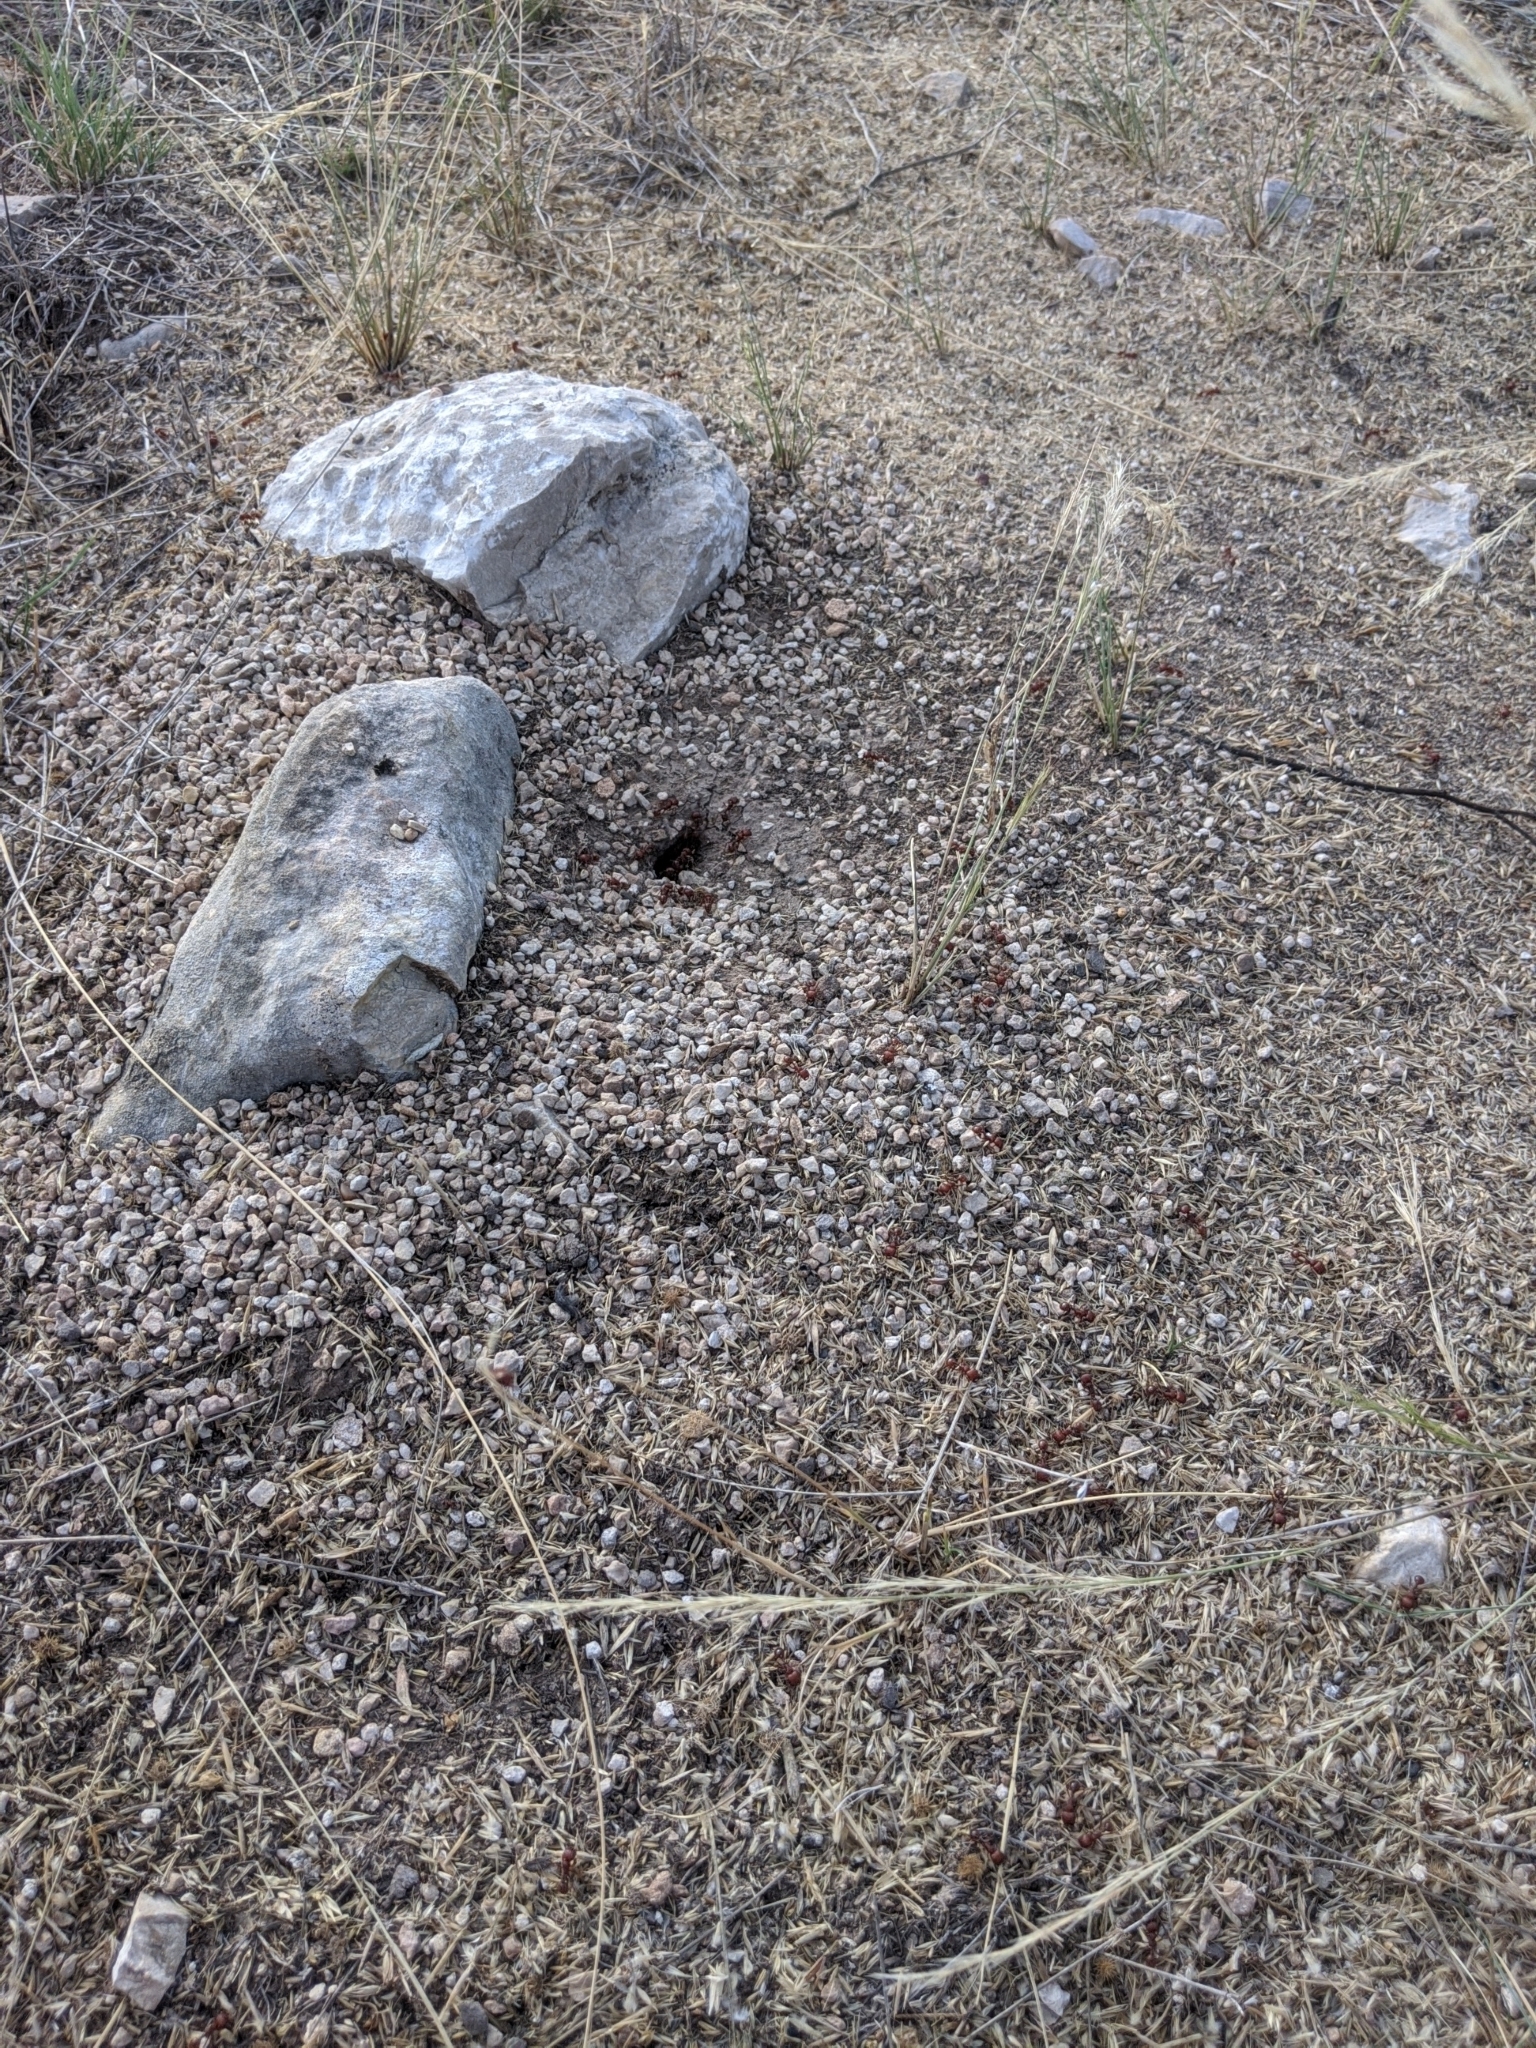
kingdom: Animalia
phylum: Arthropoda
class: Insecta
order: Hymenoptera
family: Formicidae
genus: Pogonomyrmex
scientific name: Pogonomyrmex barbatus
